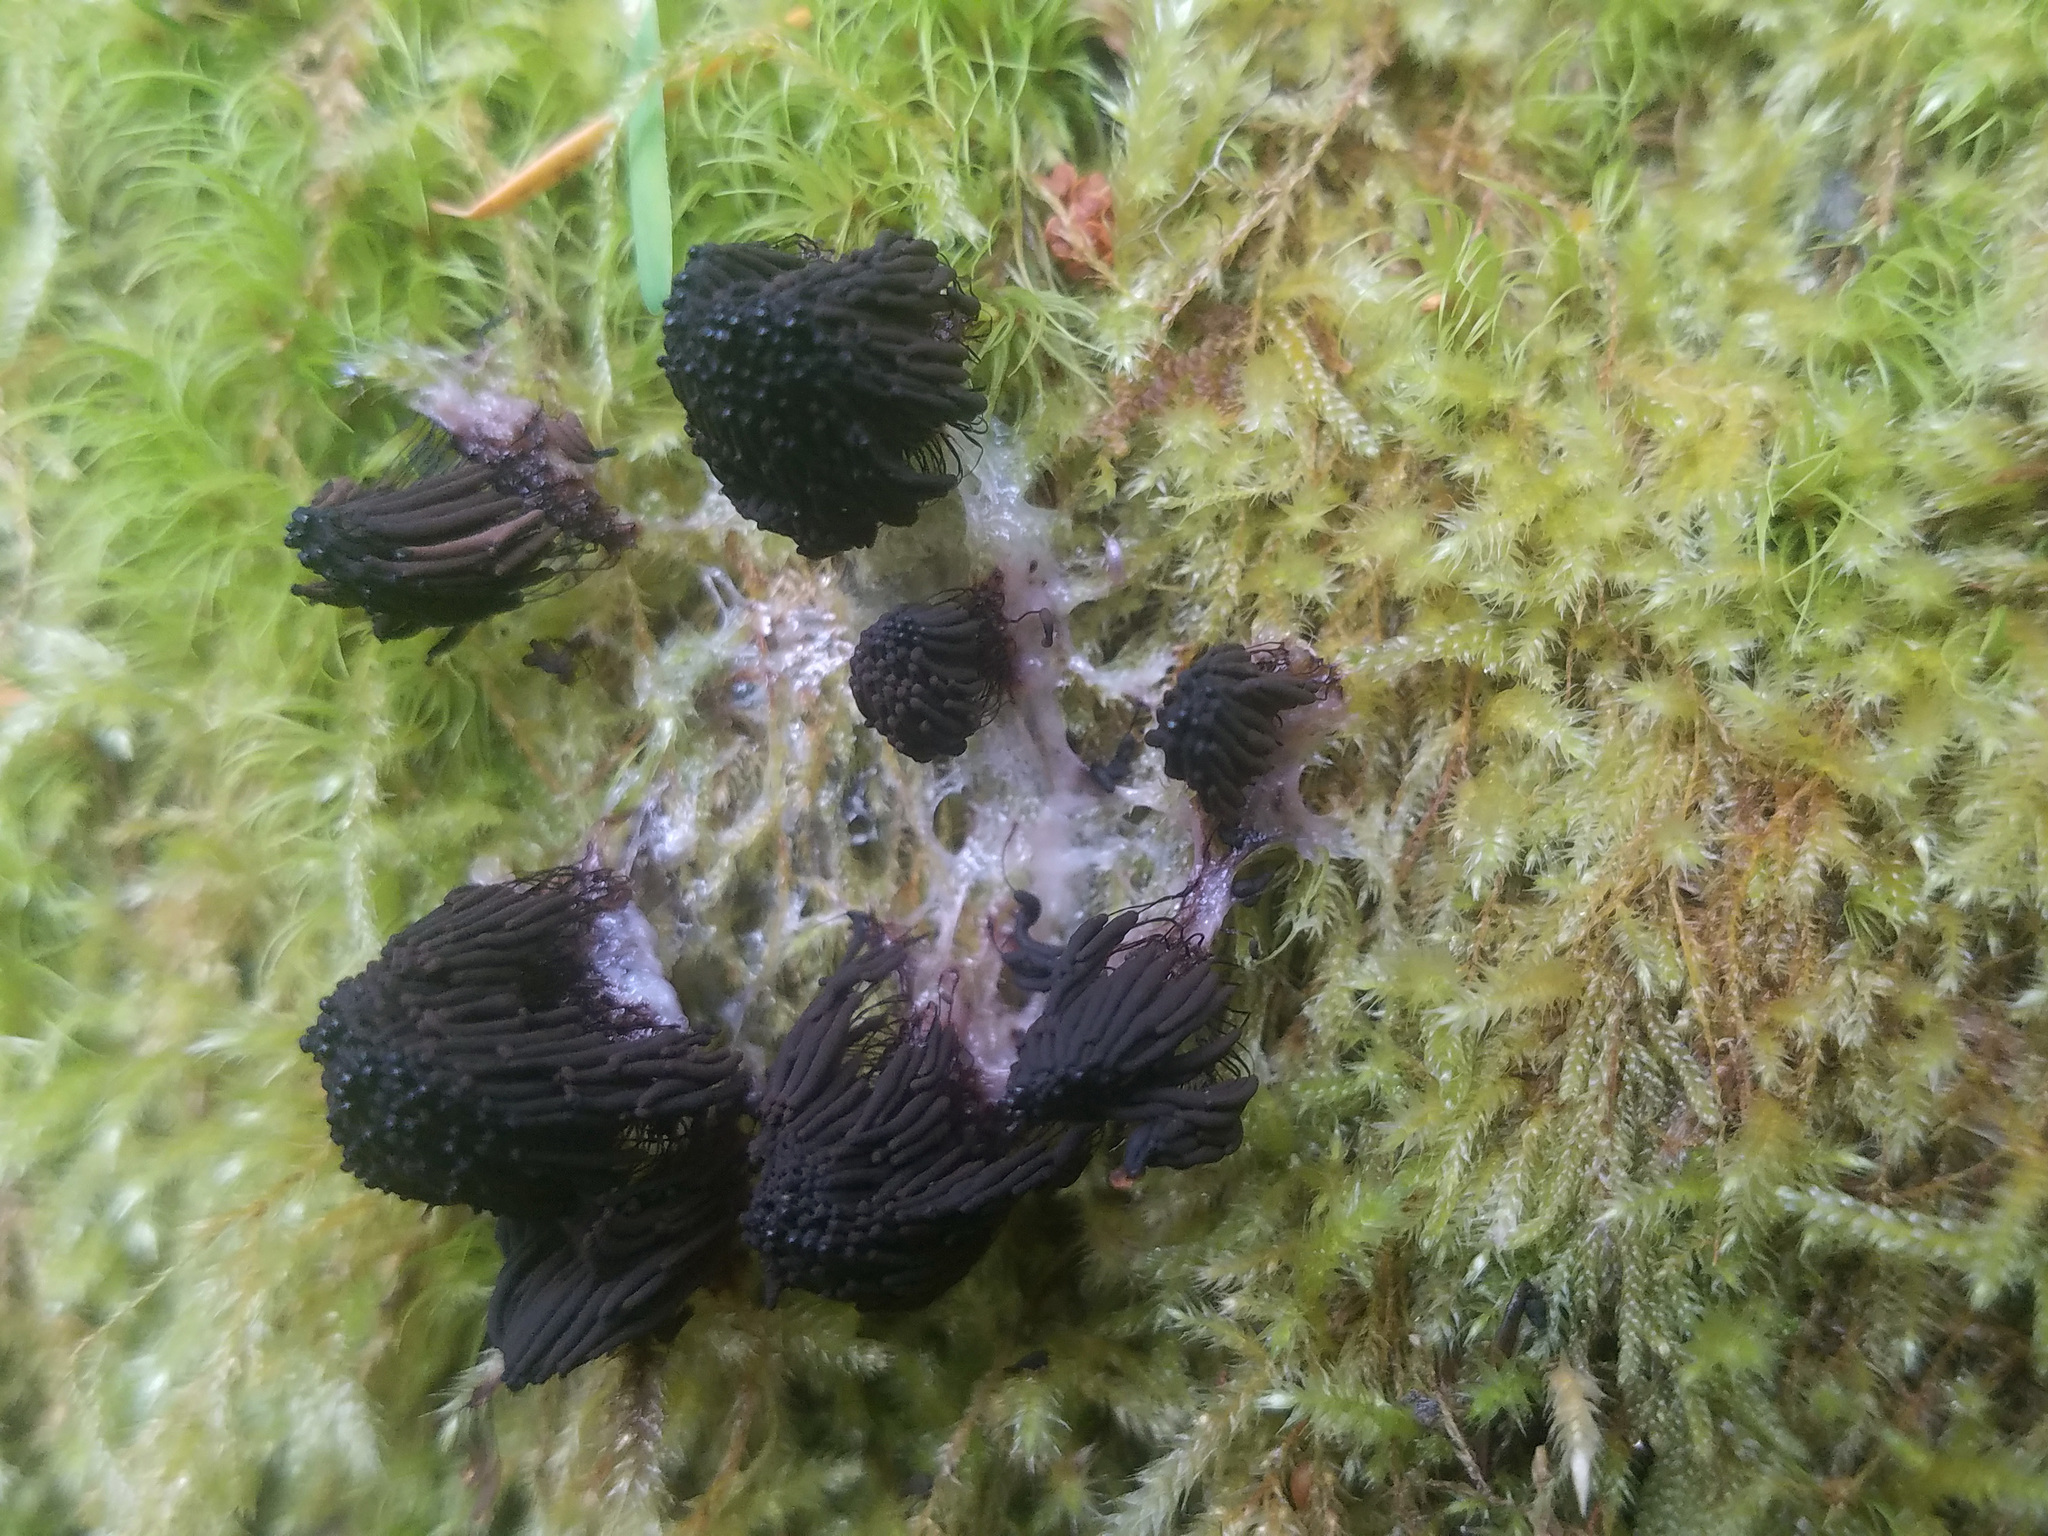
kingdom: Protozoa
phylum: Mycetozoa
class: Myxomycetes
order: Stemonitidales
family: Stemonitidaceae
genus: Stemonitis
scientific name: Stemonitis
